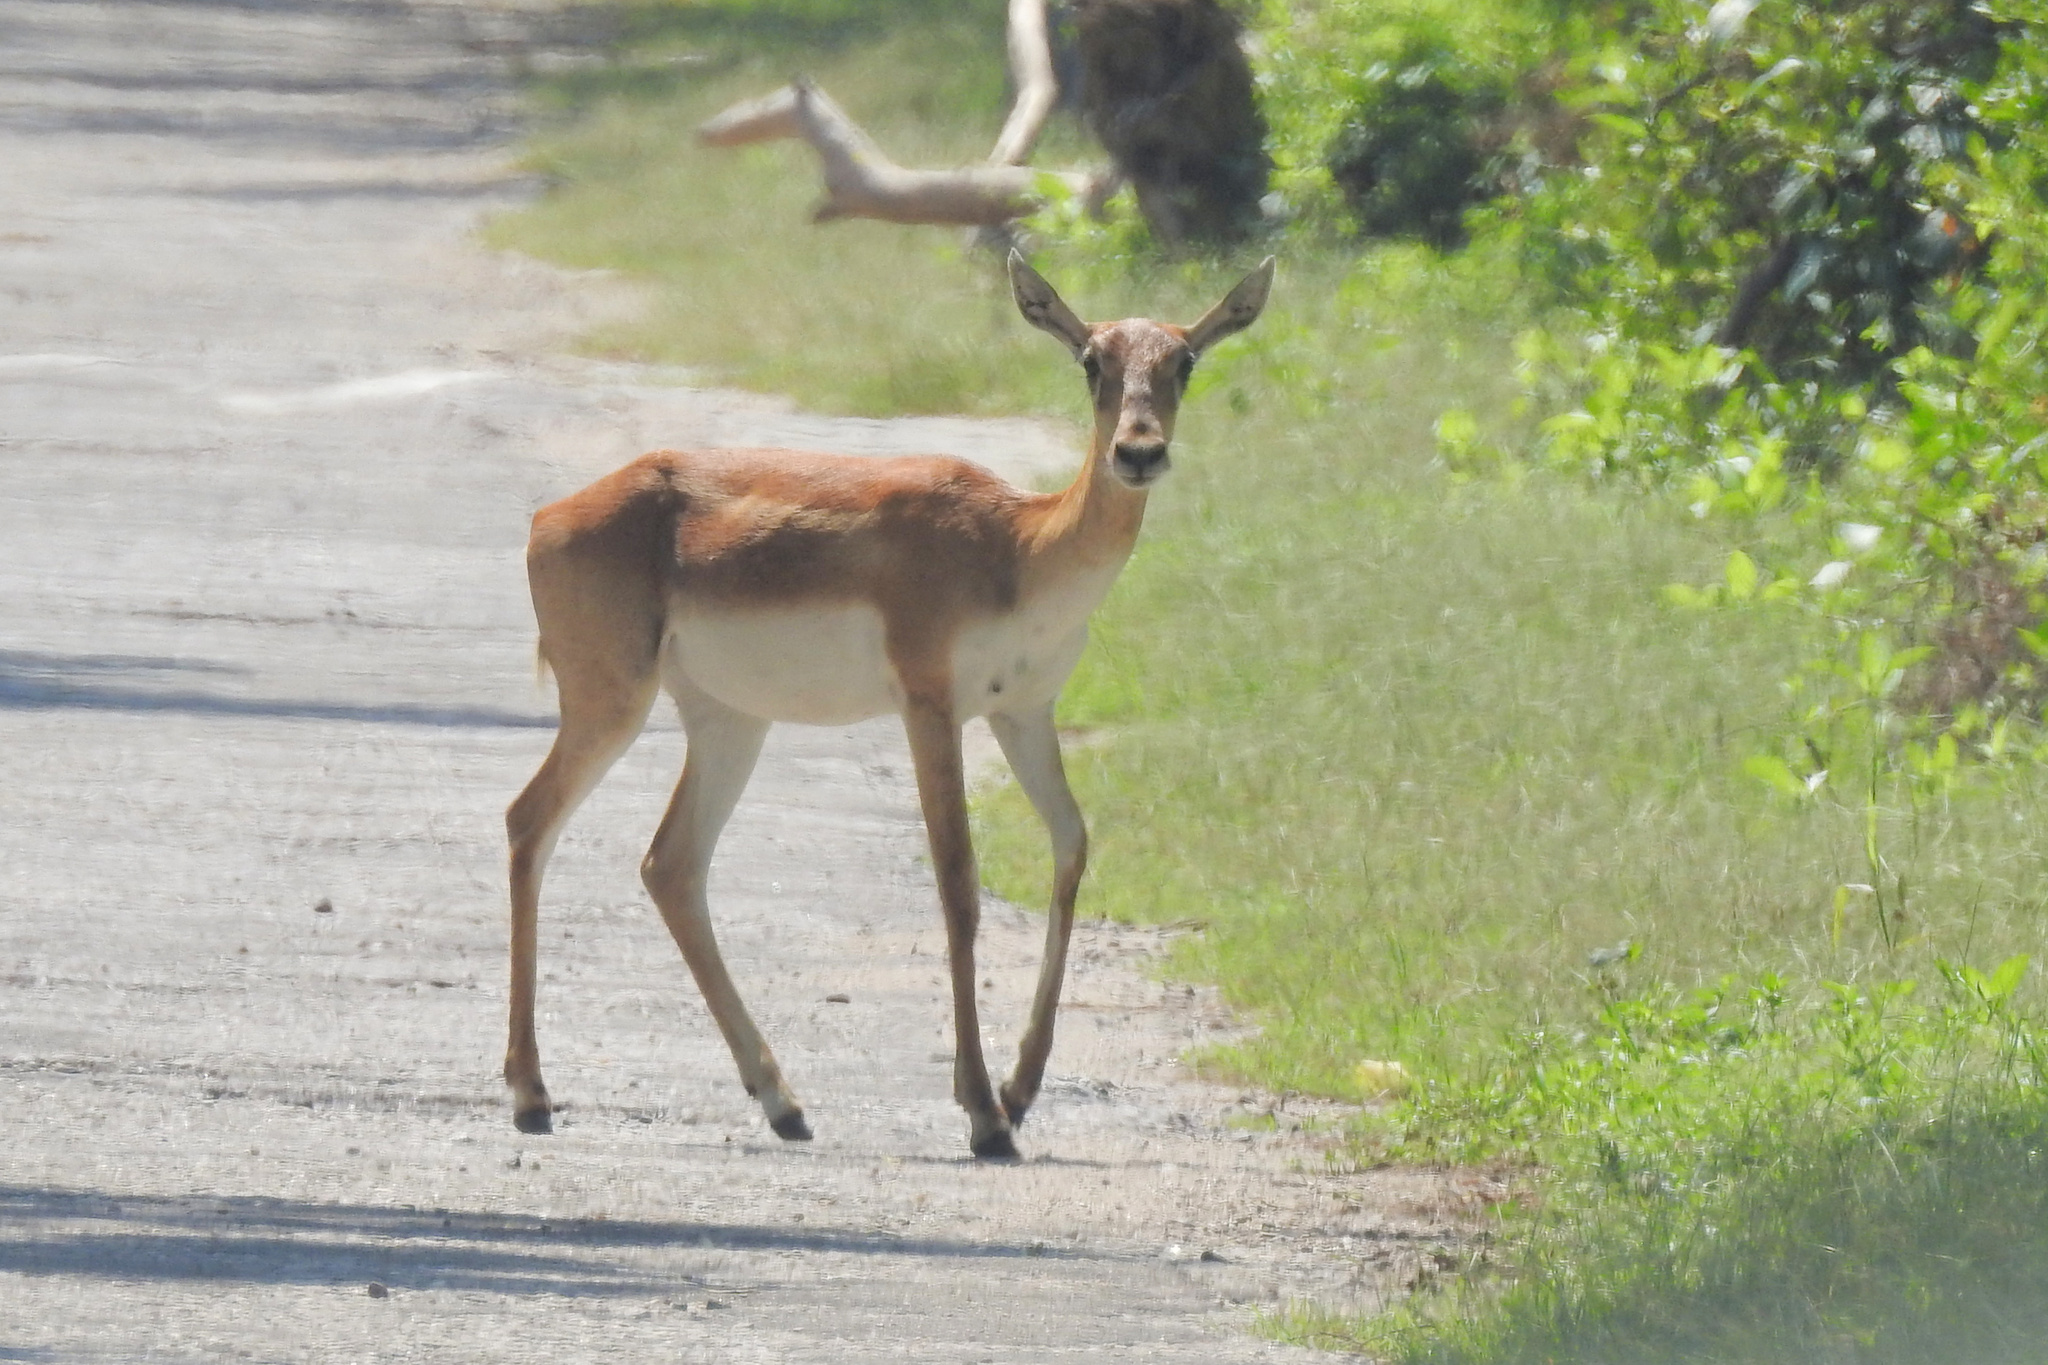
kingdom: Animalia
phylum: Chordata
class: Mammalia
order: Artiodactyla
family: Bovidae
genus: Antilope
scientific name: Antilope cervicapra
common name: Blackbuck
